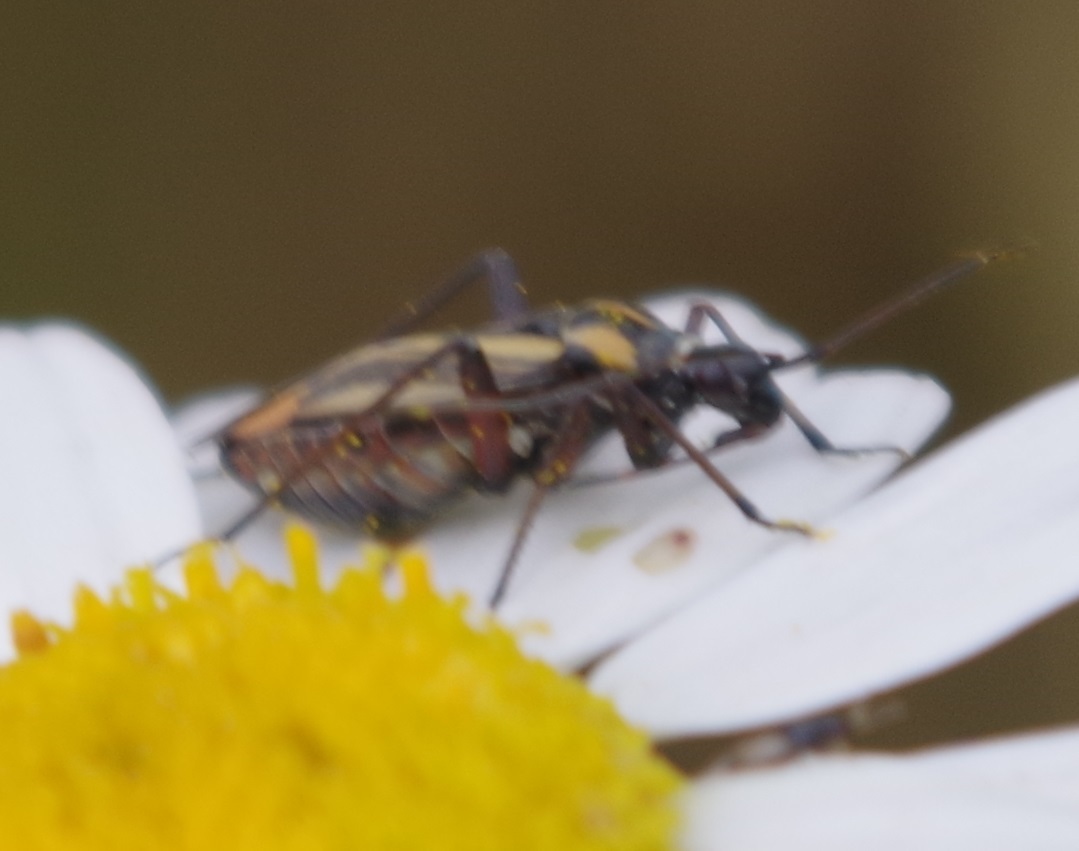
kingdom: Animalia
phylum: Arthropoda
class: Insecta
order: Hemiptera
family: Miridae
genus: Hadrodemus
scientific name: Hadrodemus m-flavum
